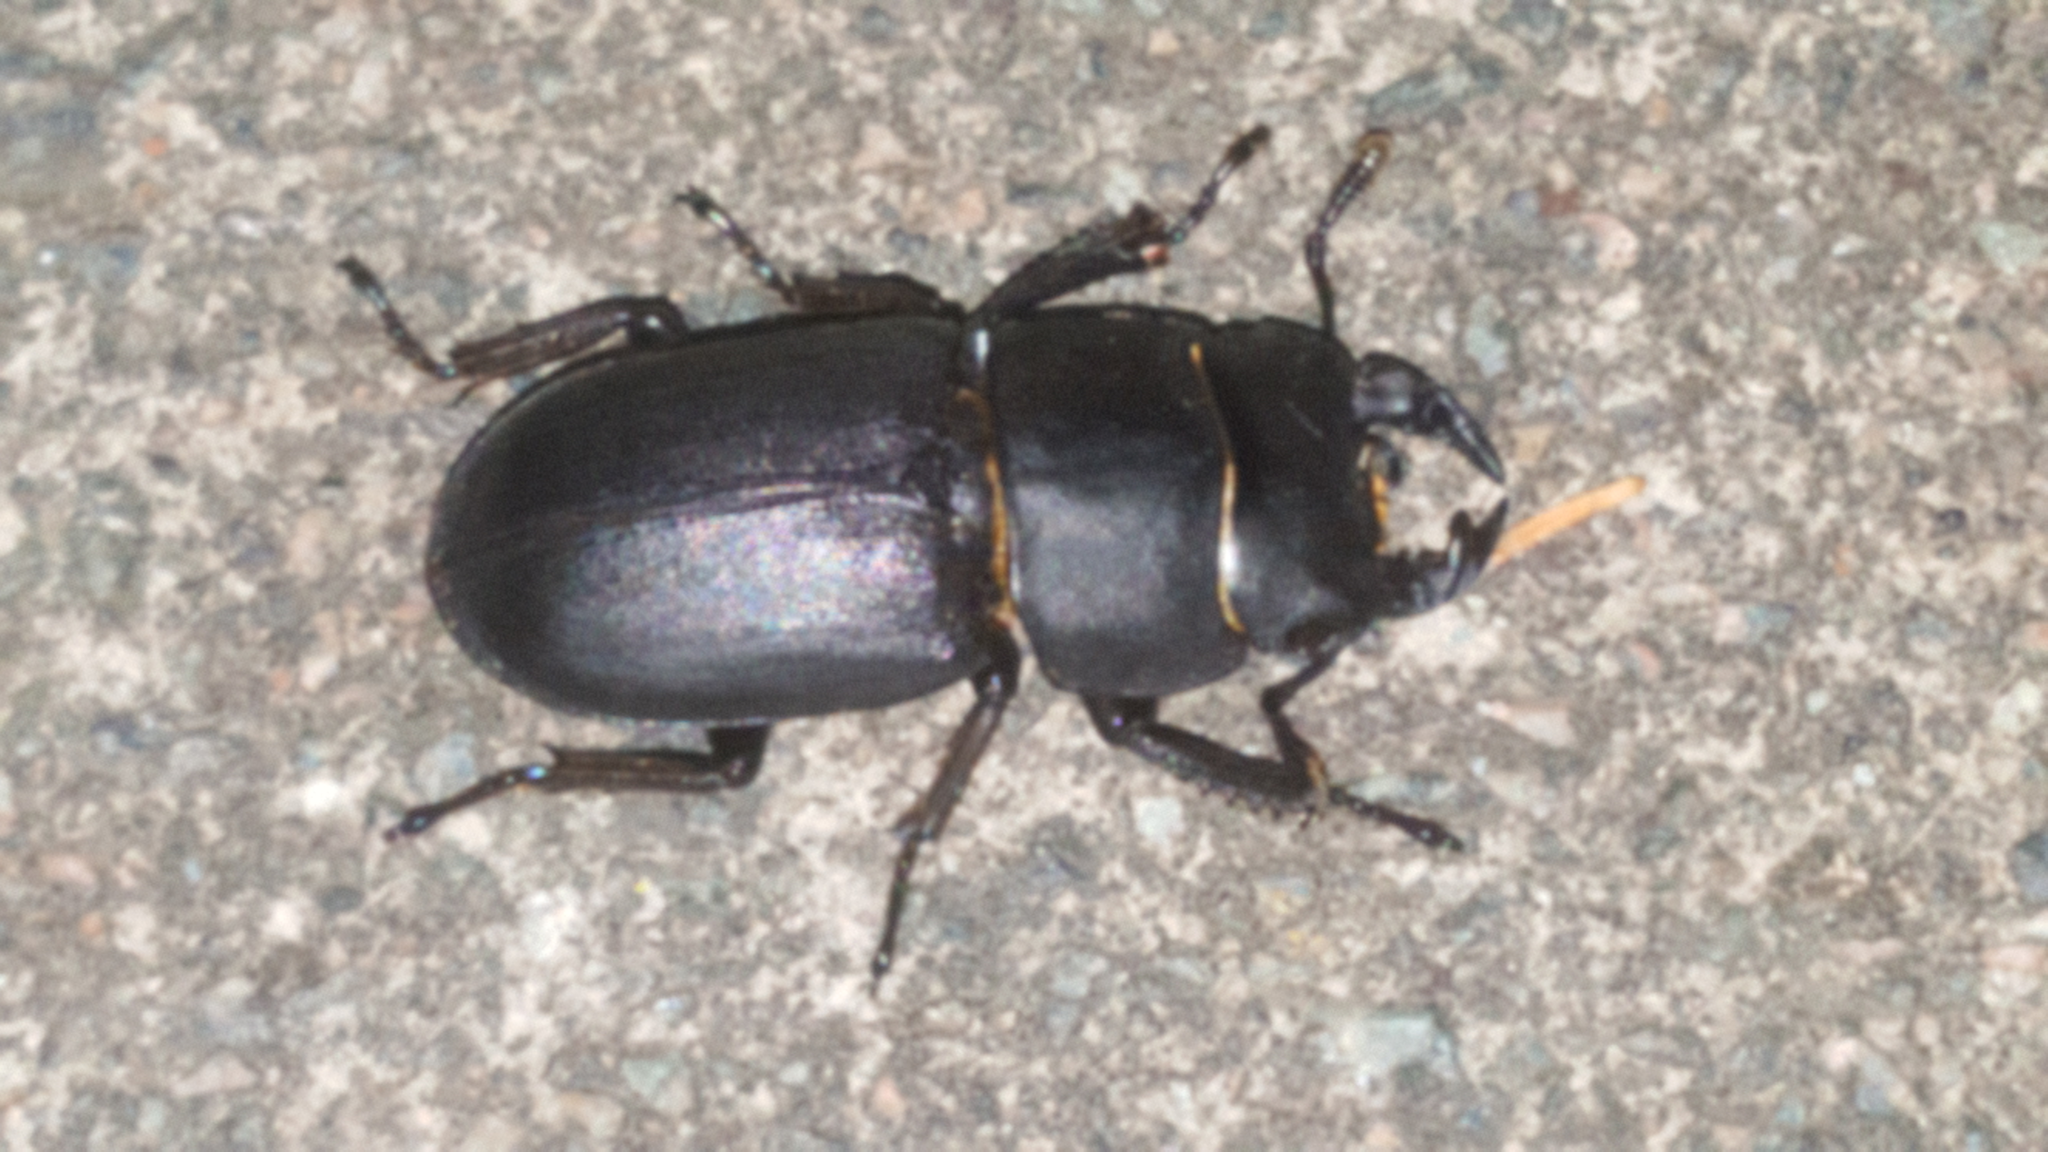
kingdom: Animalia
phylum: Arthropoda
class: Insecta
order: Coleoptera
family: Lucanidae
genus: Dorcus
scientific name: Dorcus parallelipipedus
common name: Lesser stag beetle
